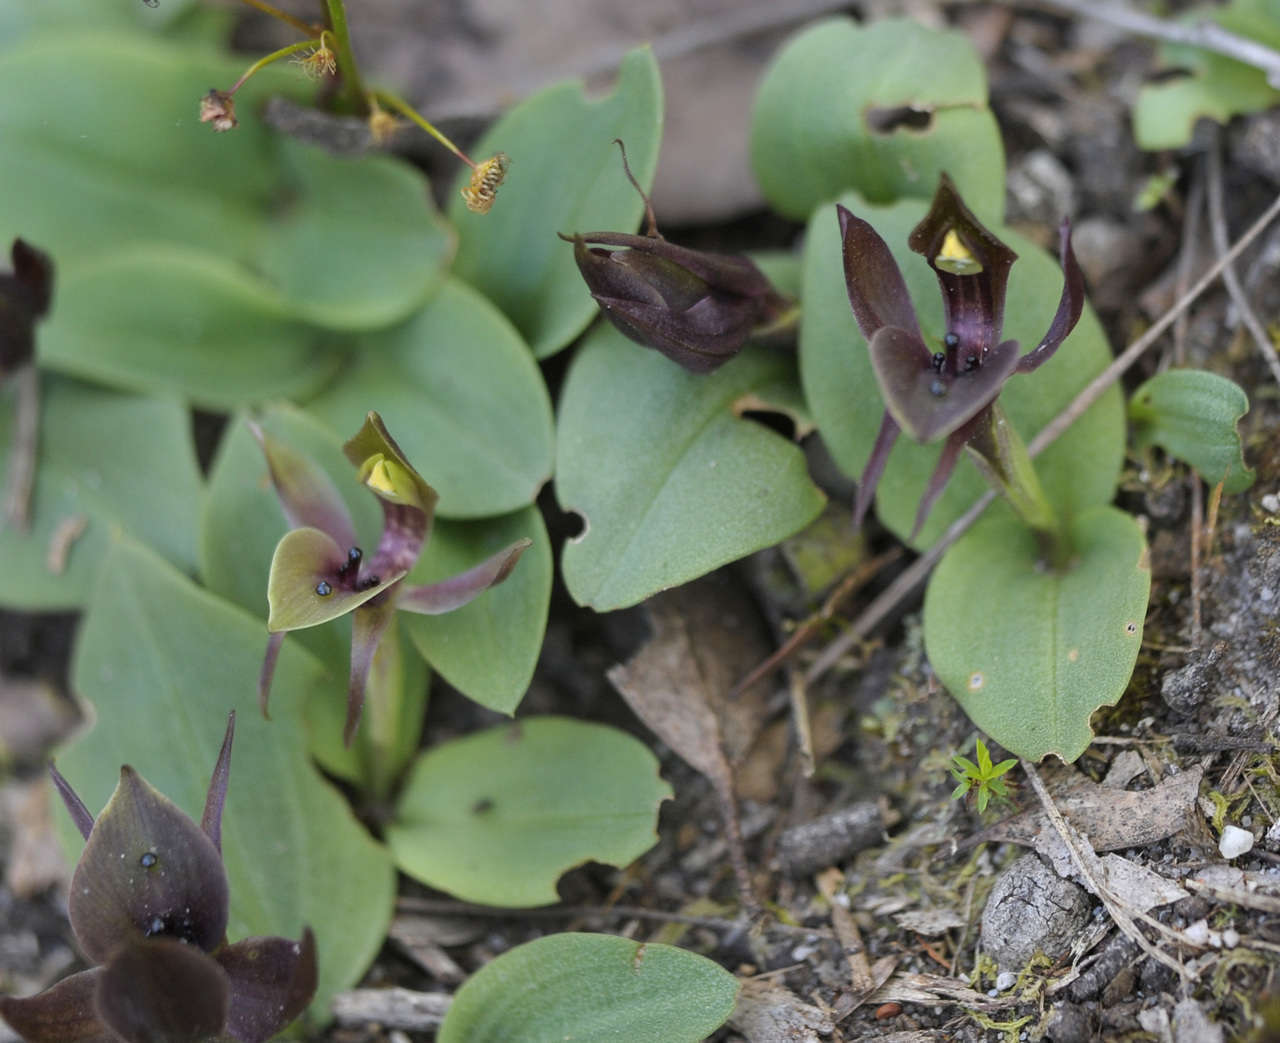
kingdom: Plantae
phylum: Tracheophyta
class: Liliopsida
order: Asparagales
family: Orchidaceae
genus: Chiloglottis
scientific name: Chiloglottis valida
